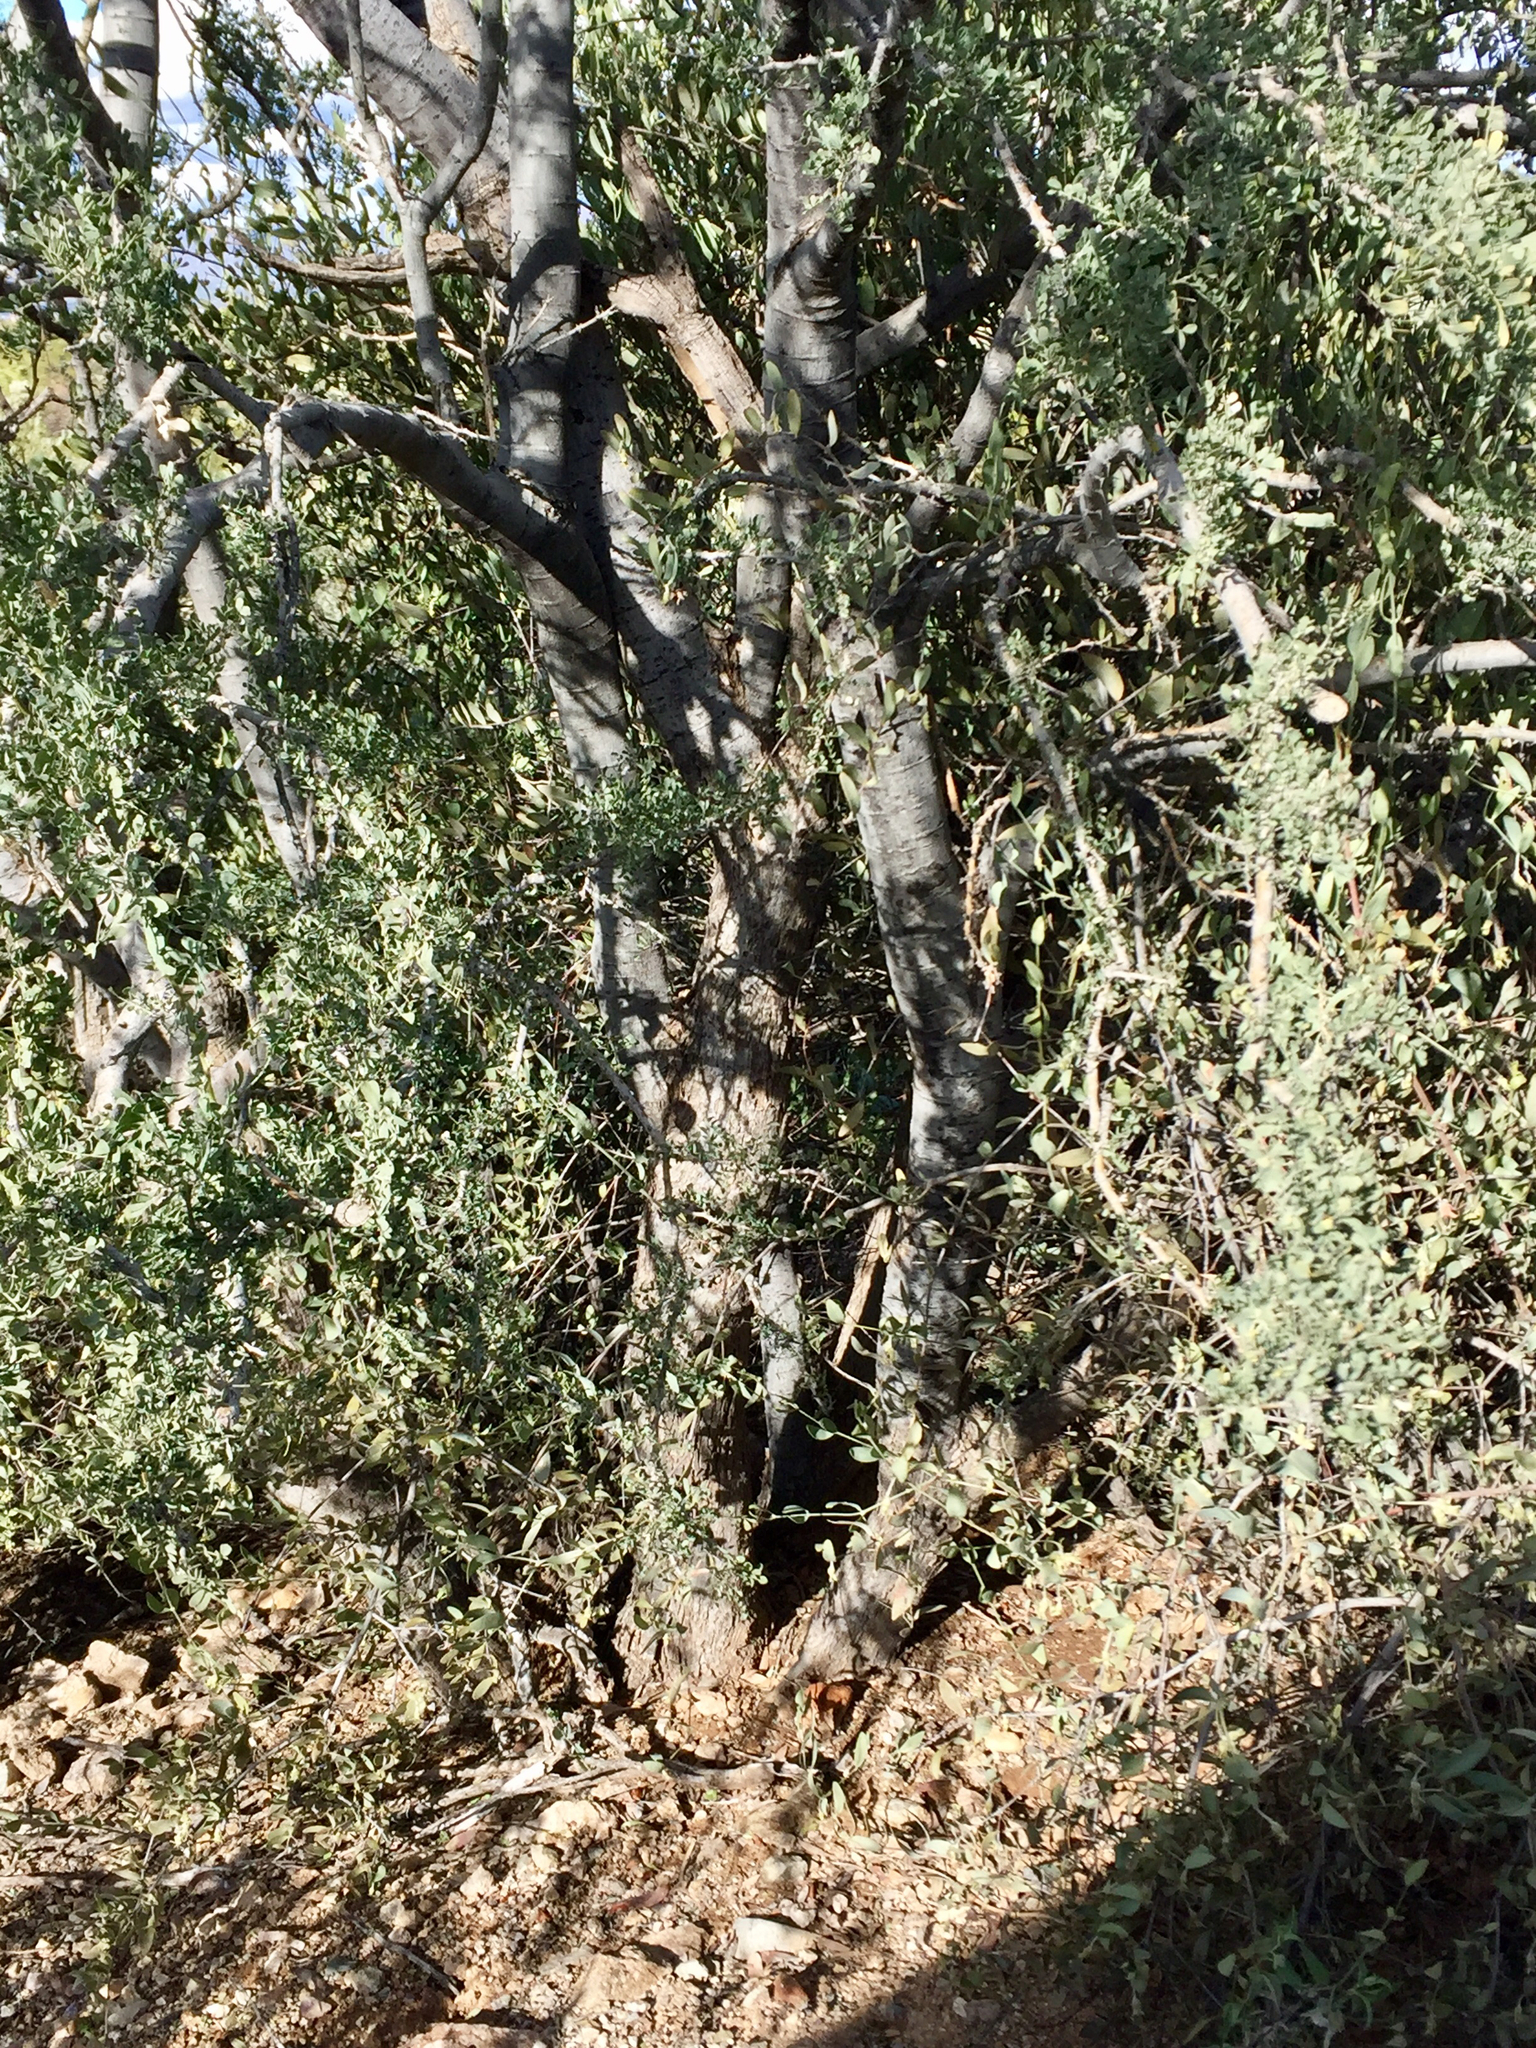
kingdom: Plantae
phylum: Tracheophyta
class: Magnoliopsida
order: Fabales
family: Fabaceae
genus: Olneya
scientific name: Olneya tesota
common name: Desert ironwood
